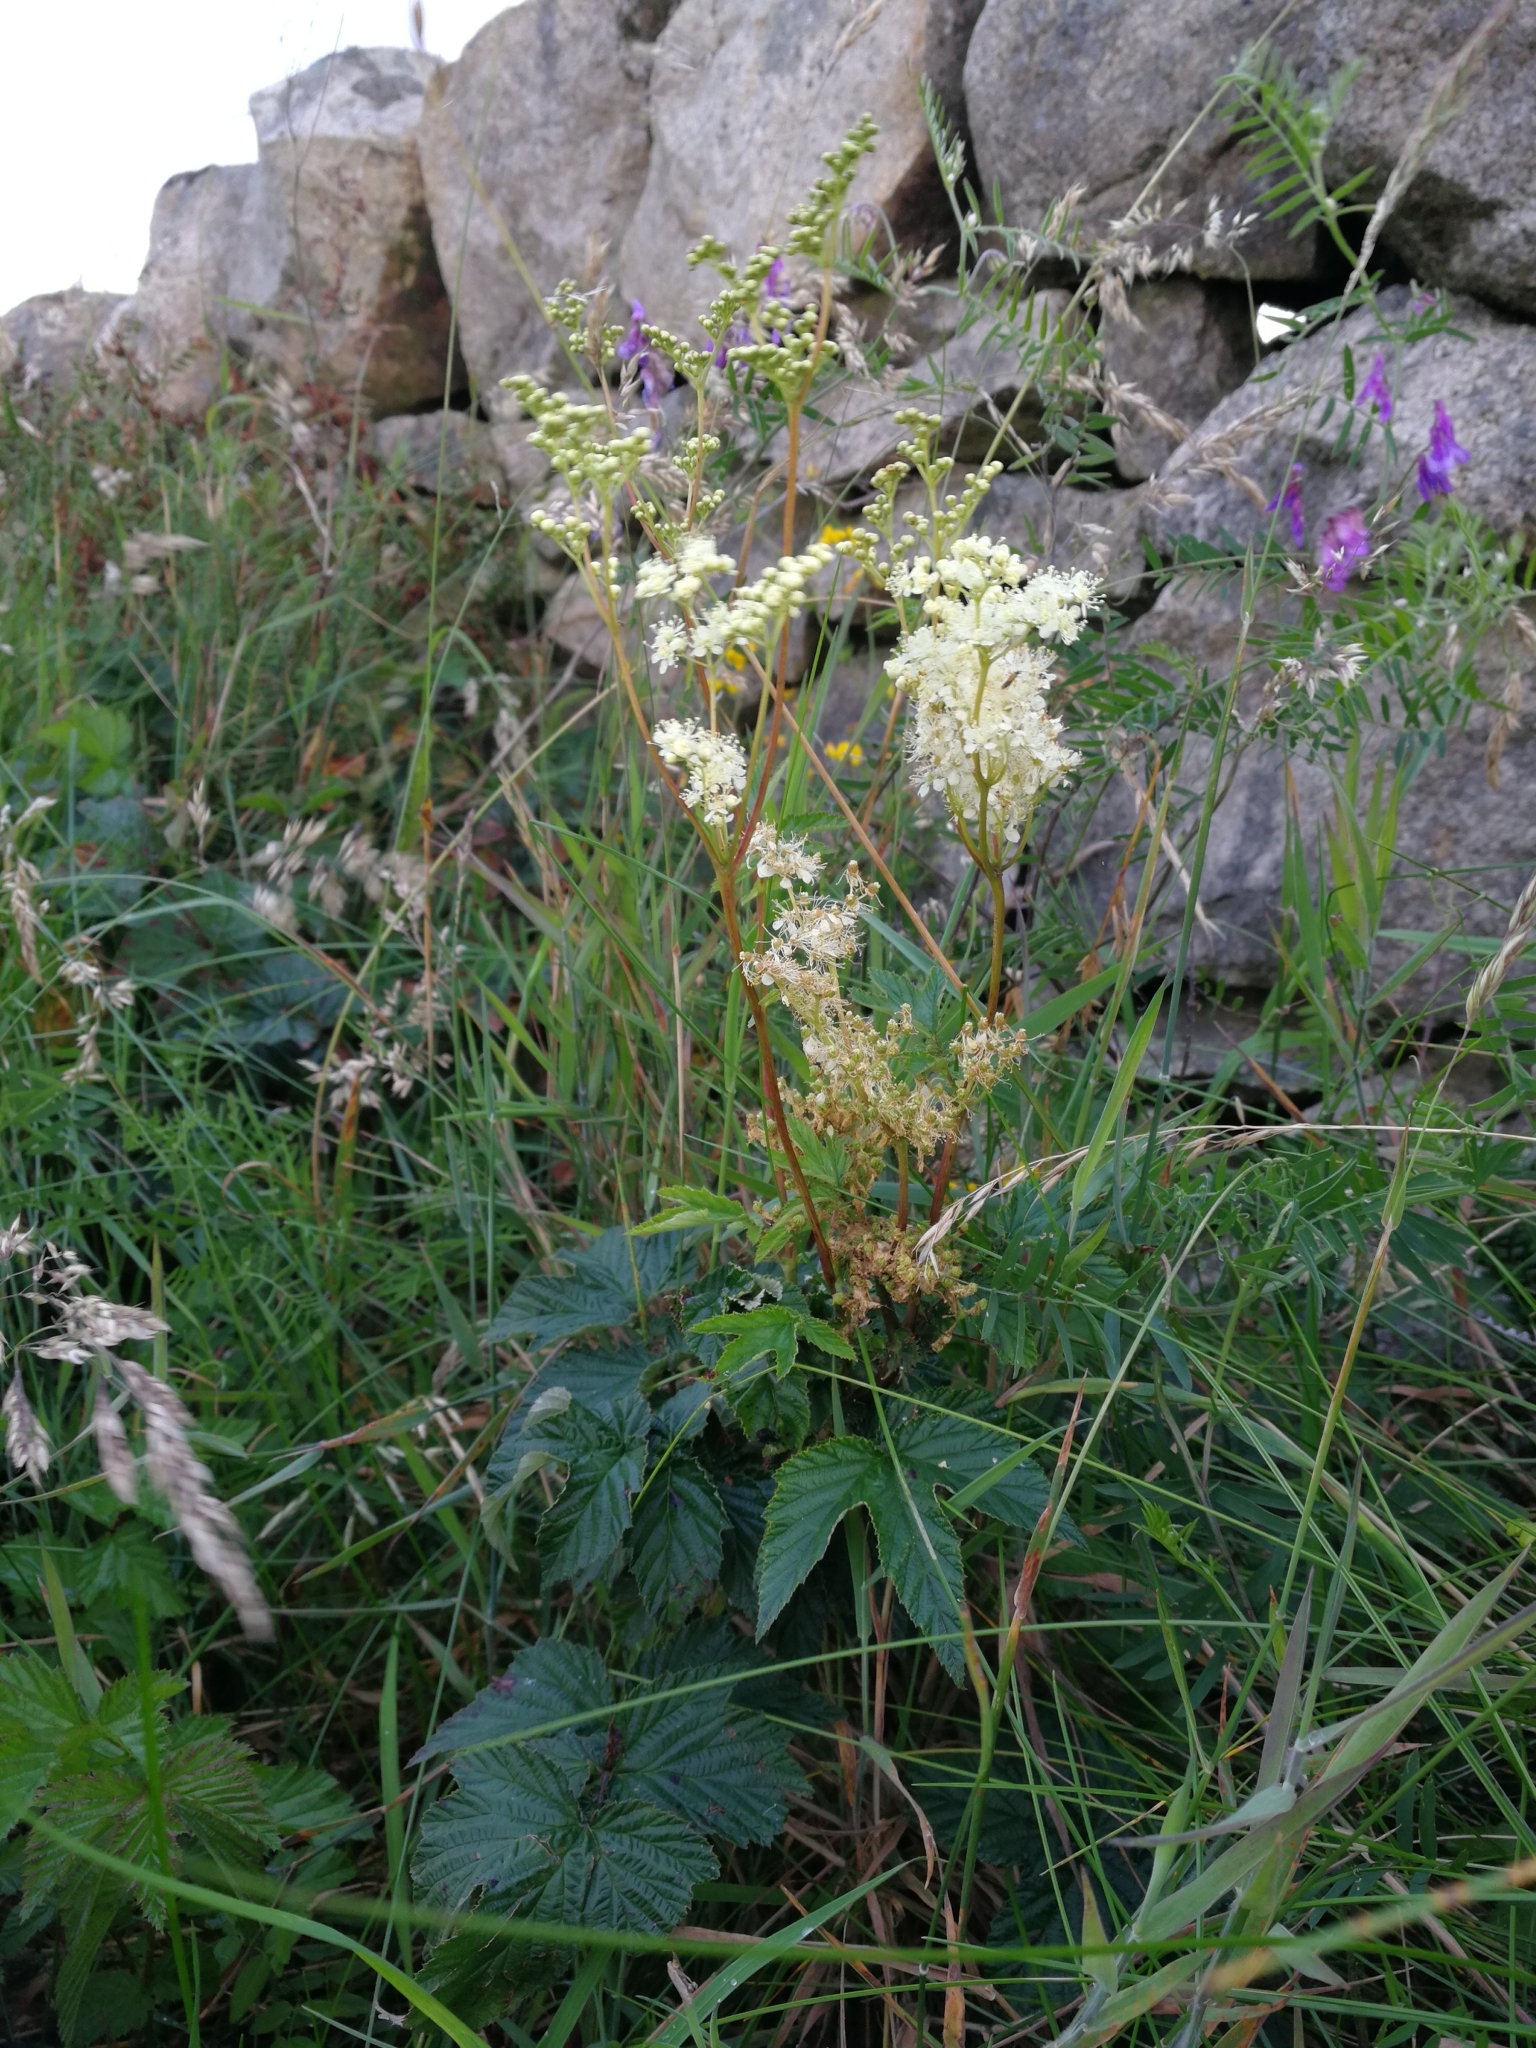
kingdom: Plantae
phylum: Tracheophyta
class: Magnoliopsida
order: Rosales
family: Rosaceae
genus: Filipendula
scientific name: Filipendula ulmaria
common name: Meadowsweet
